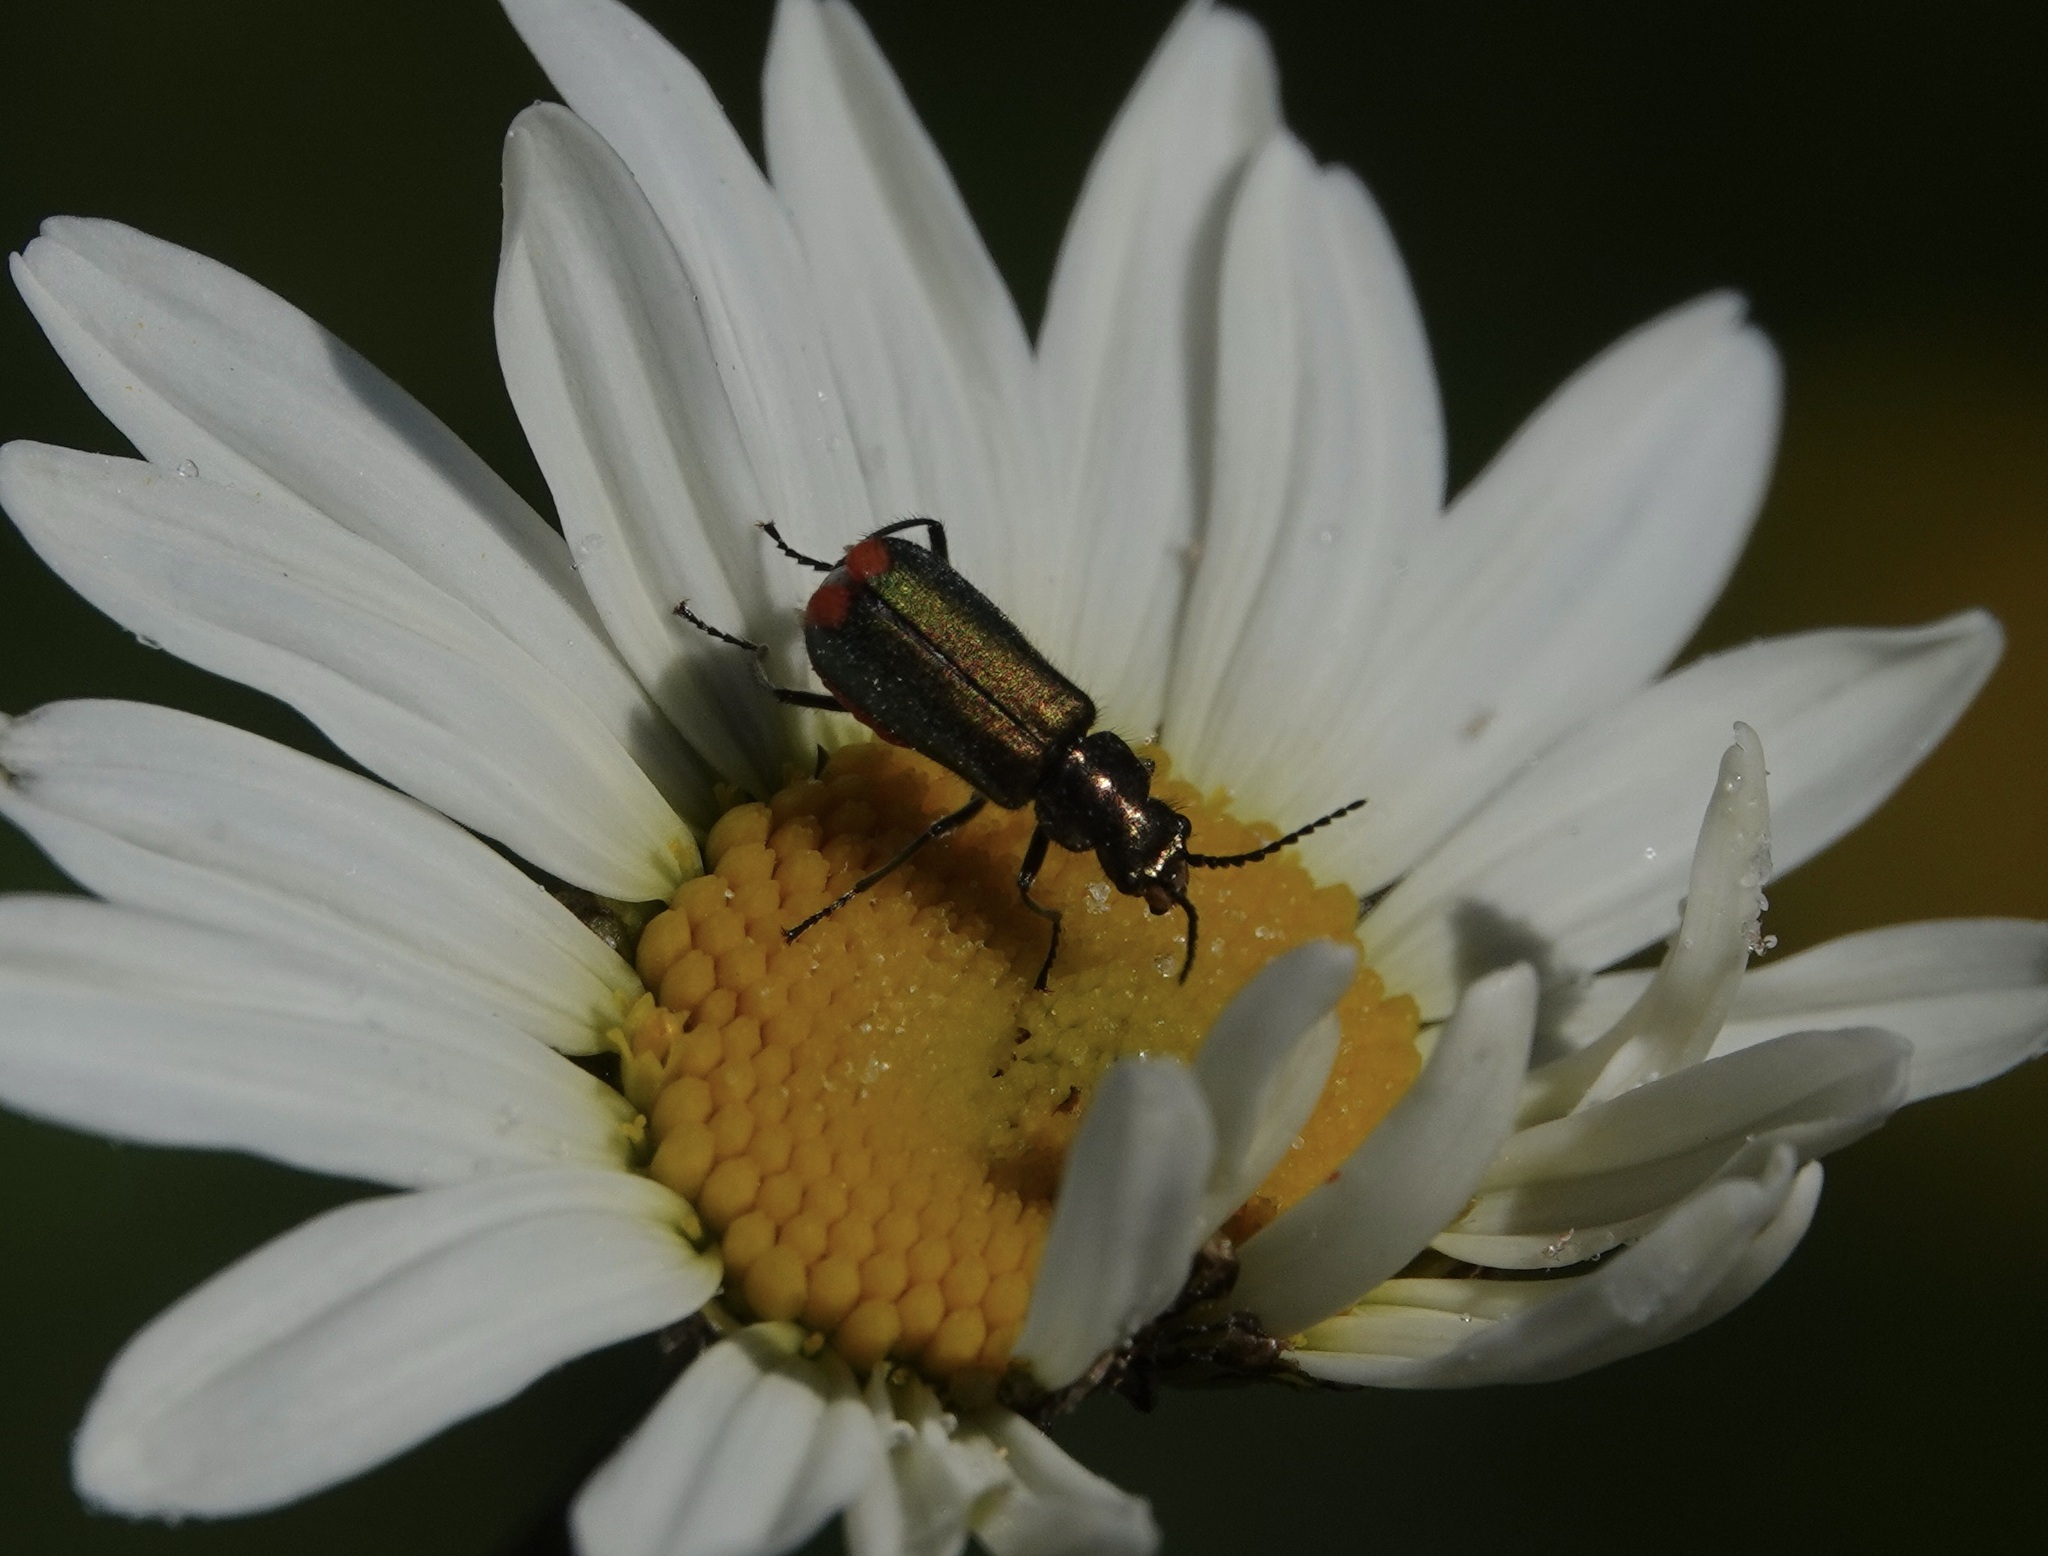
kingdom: Animalia
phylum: Arthropoda
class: Insecta
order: Coleoptera
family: Melyridae
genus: Malachius
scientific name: Malachius bipustulatus
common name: Malachite beetle
